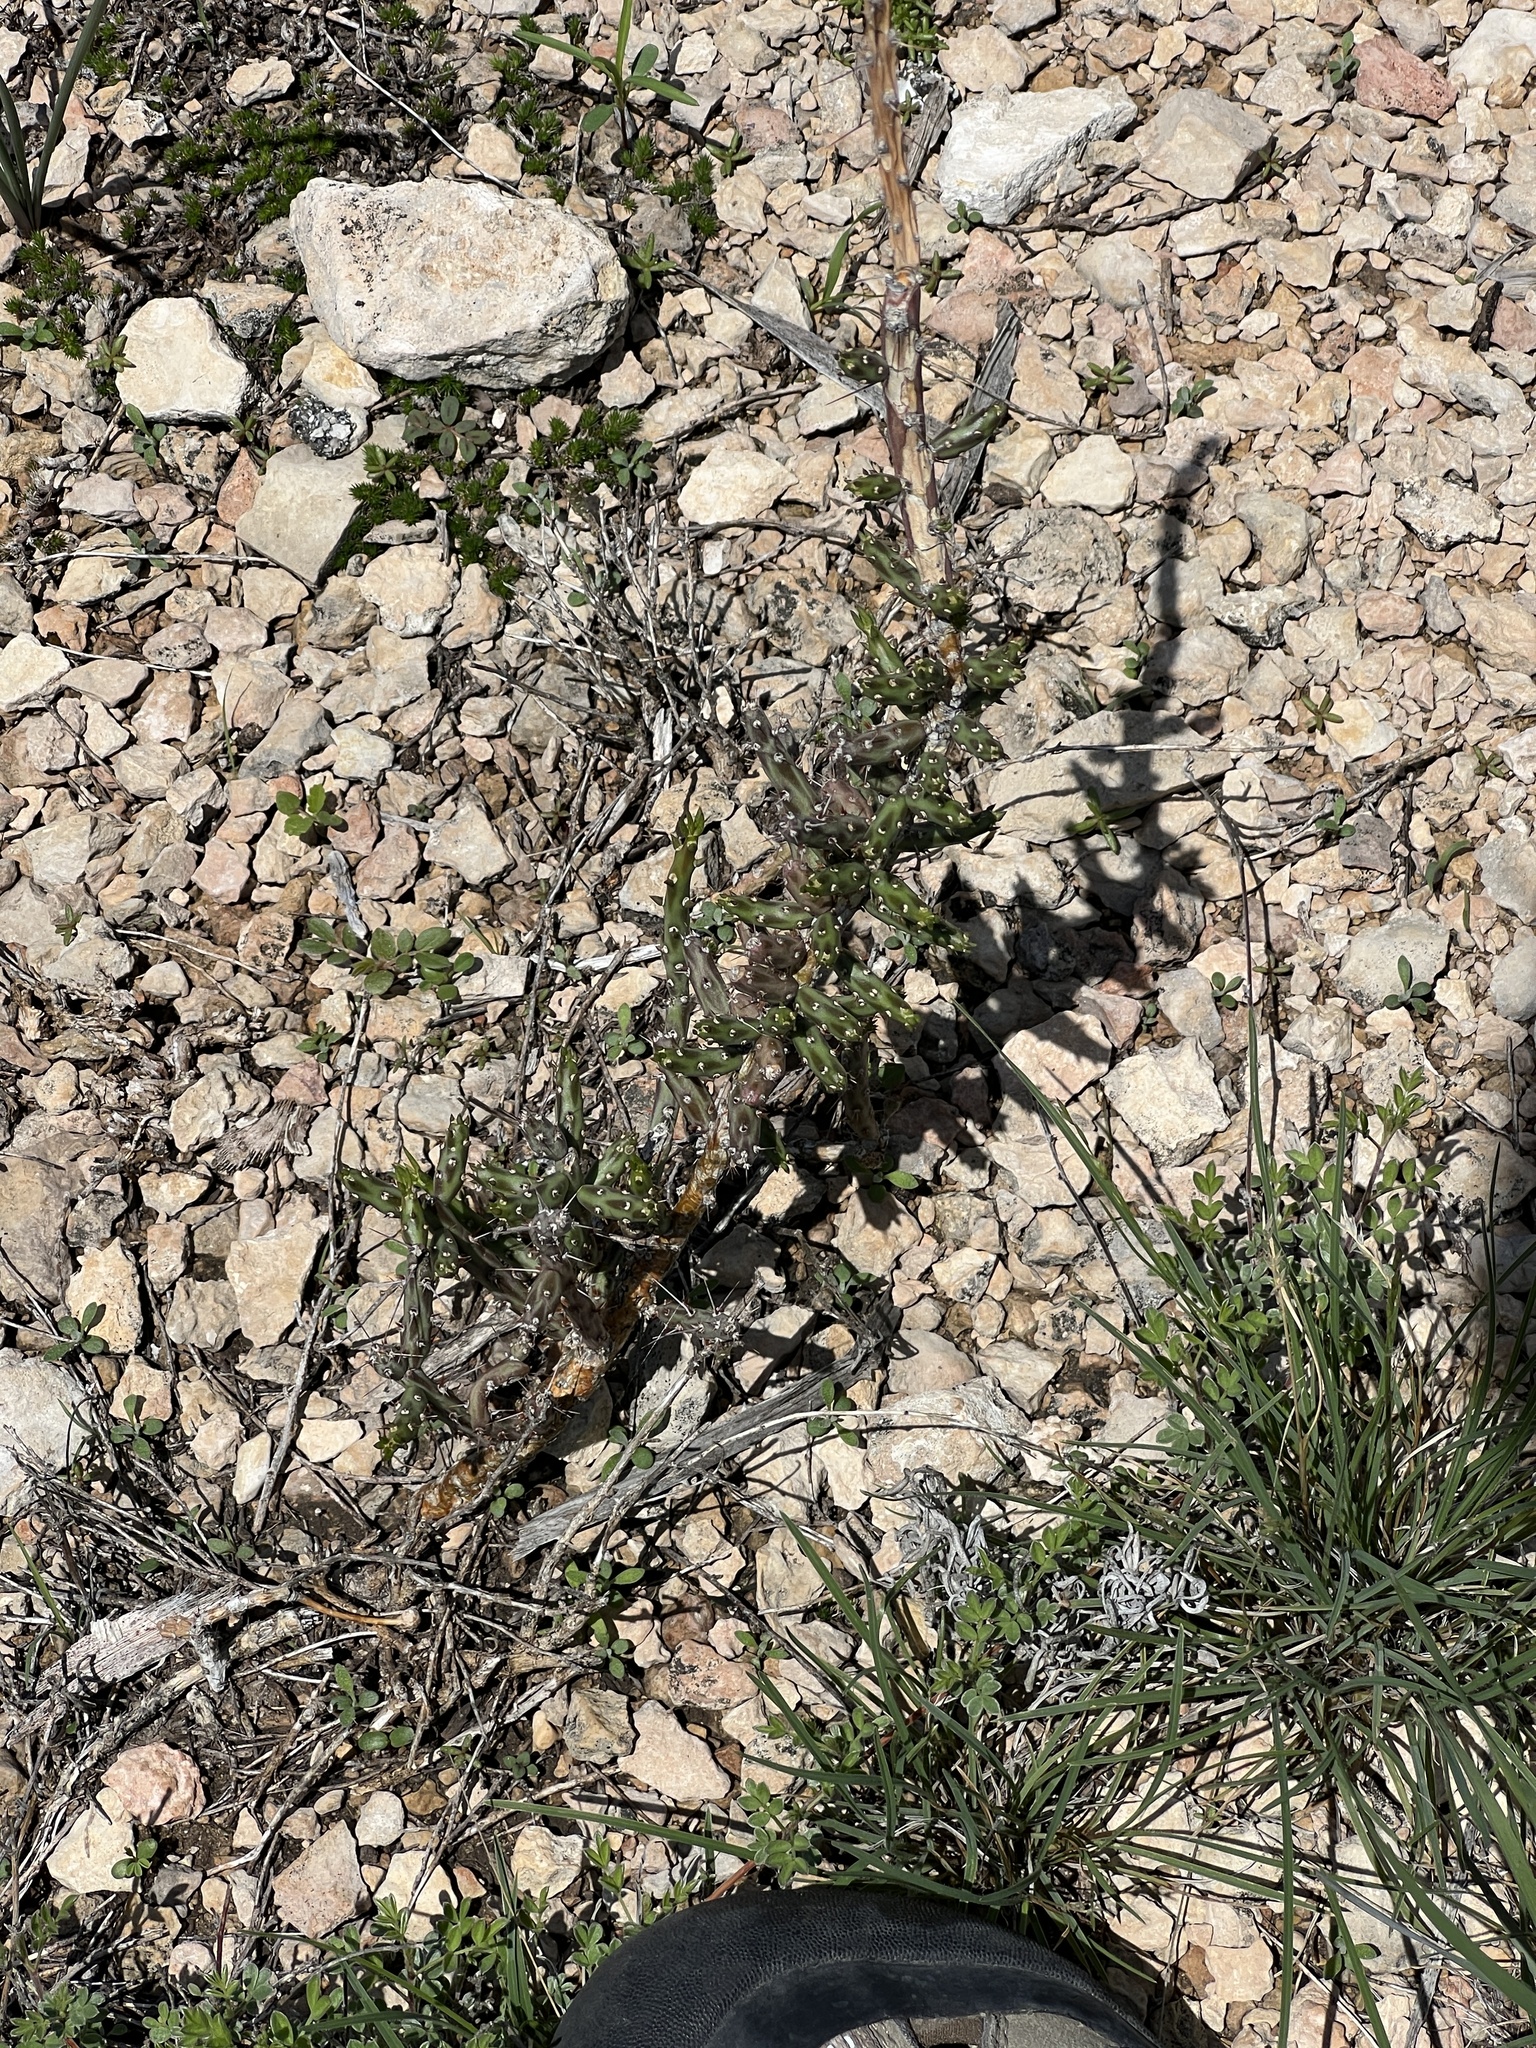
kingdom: Plantae
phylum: Tracheophyta
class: Magnoliopsida
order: Caryophyllales
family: Cactaceae
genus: Cylindropuntia
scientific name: Cylindropuntia leptocaulis
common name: Christmas cactus
